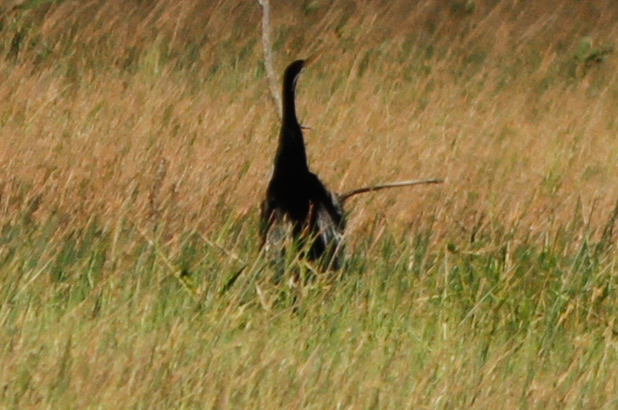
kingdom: Animalia
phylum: Chordata
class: Aves
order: Suliformes
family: Anhingidae
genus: Anhinga
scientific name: Anhinga novaehollandiae
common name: Australasian darter
